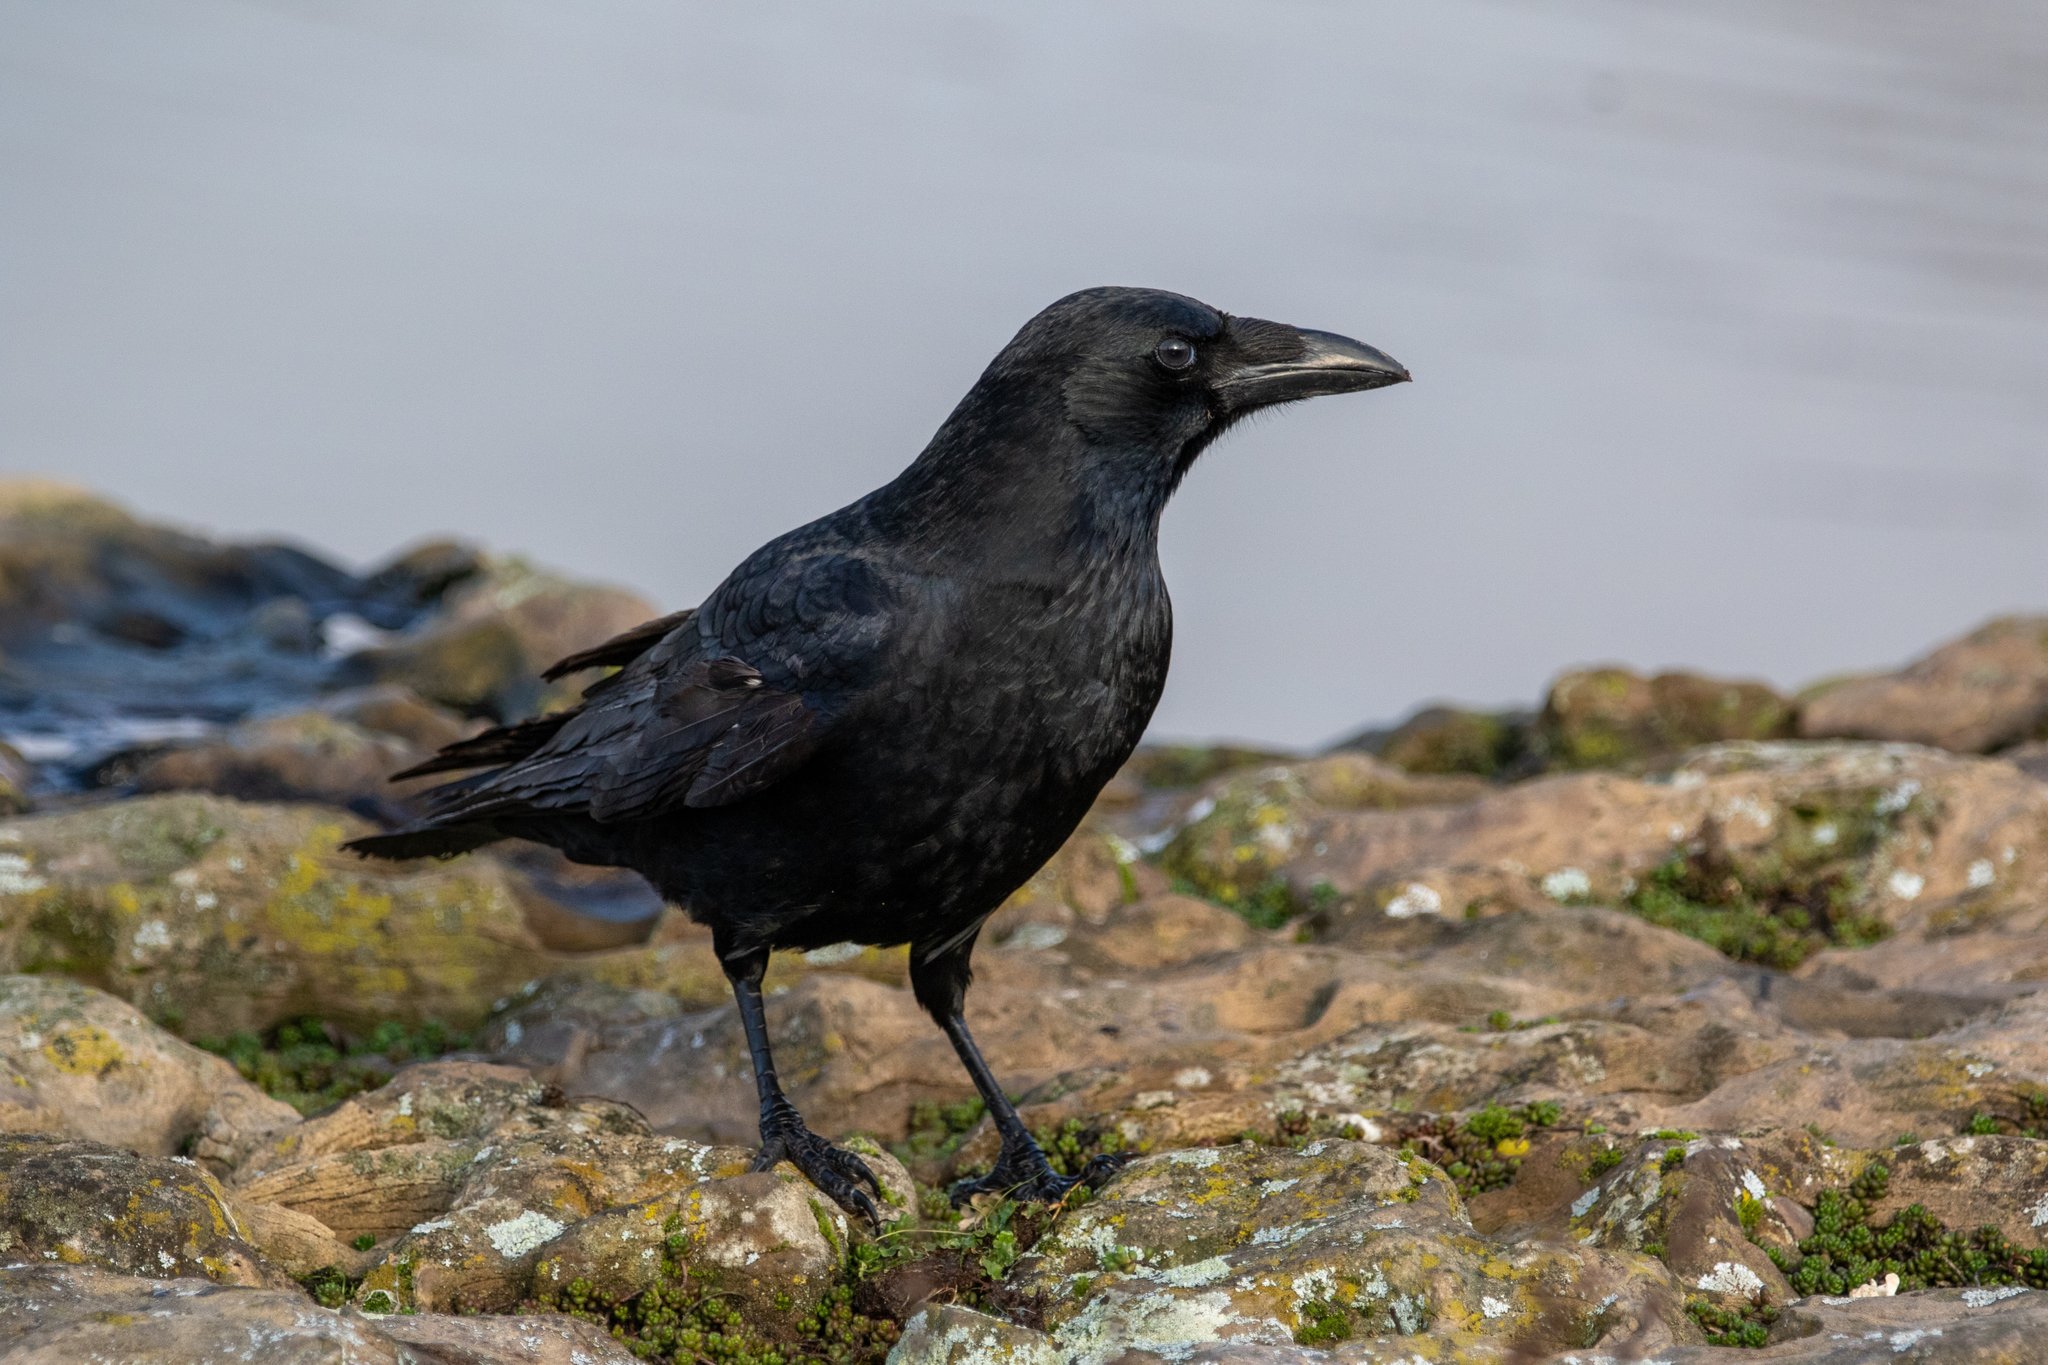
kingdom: Animalia
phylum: Chordata
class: Aves
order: Passeriformes
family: Corvidae
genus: Corvus
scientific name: Corvus corone
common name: Carrion crow
